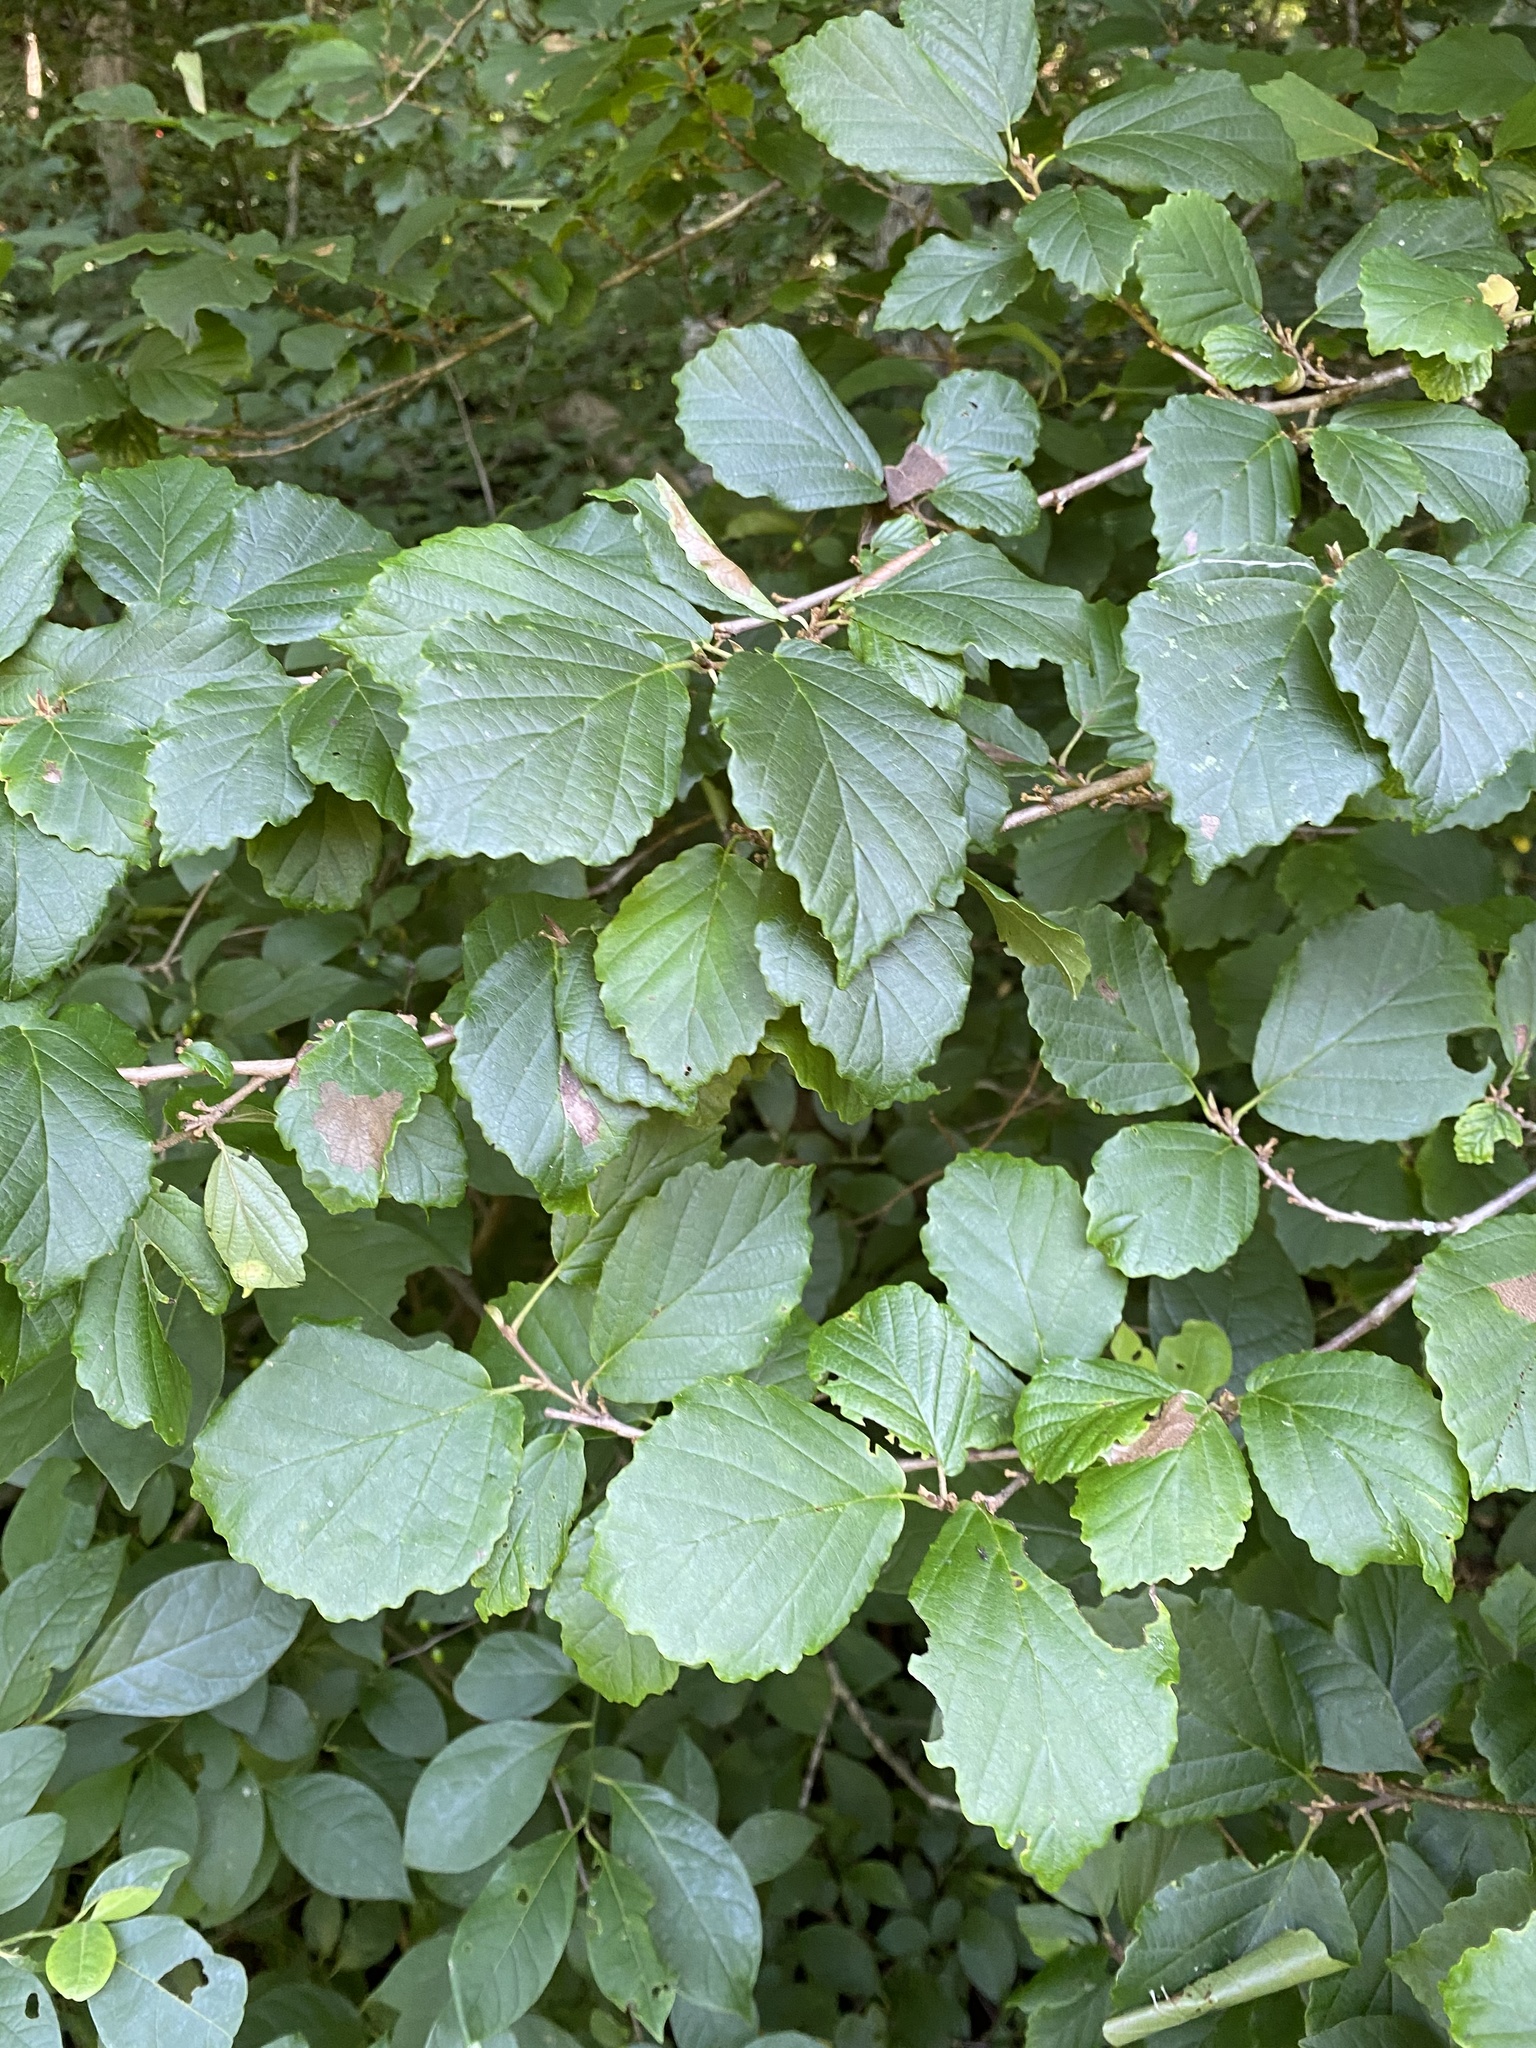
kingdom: Plantae
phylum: Tracheophyta
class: Magnoliopsida
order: Saxifragales
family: Hamamelidaceae
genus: Hamamelis
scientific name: Hamamelis virginiana
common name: Witch-hazel
